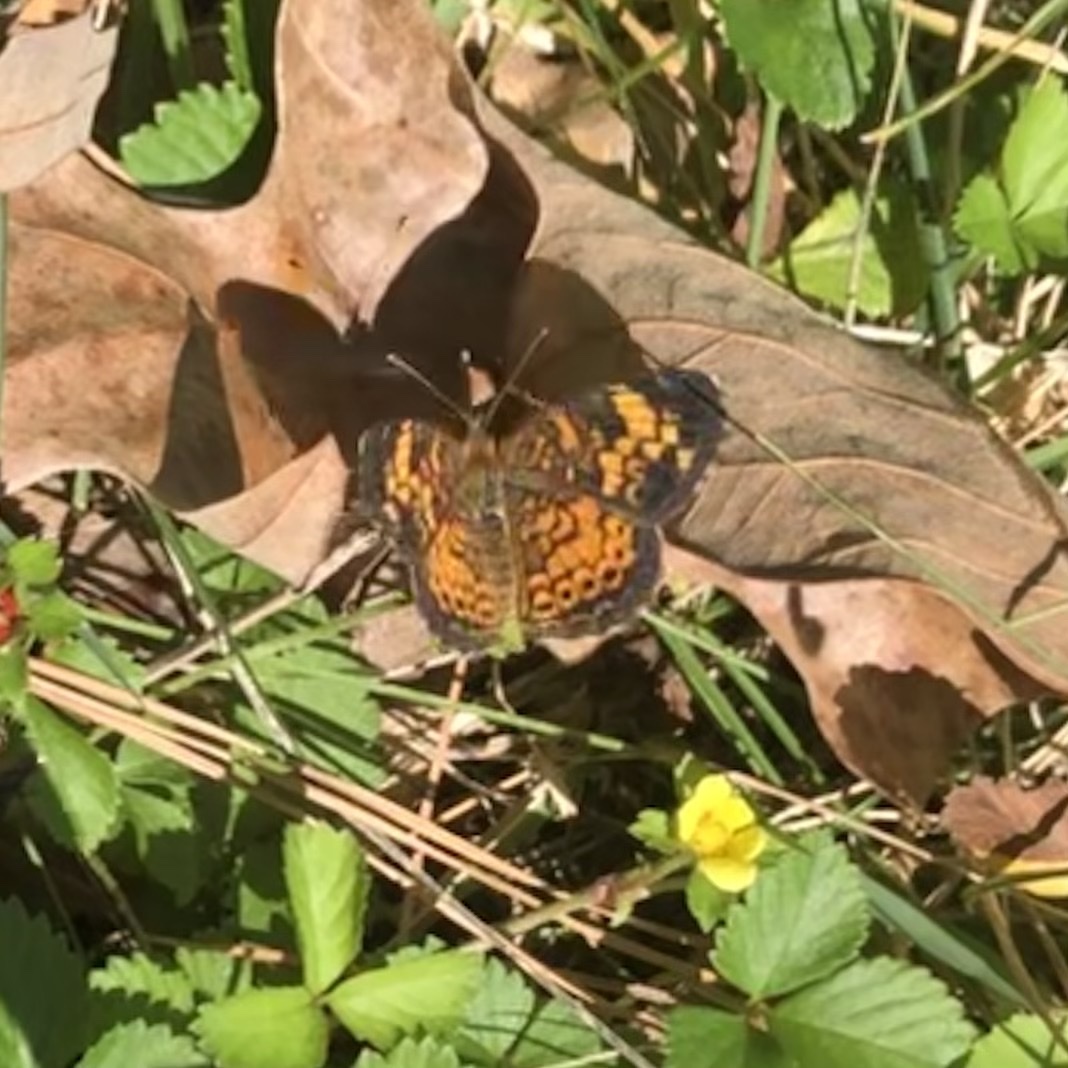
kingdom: Animalia
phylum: Arthropoda
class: Insecta
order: Lepidoptera
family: Nymphalidae
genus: Phyciodes
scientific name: Phyciodes tharos
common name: Pearl crescent
